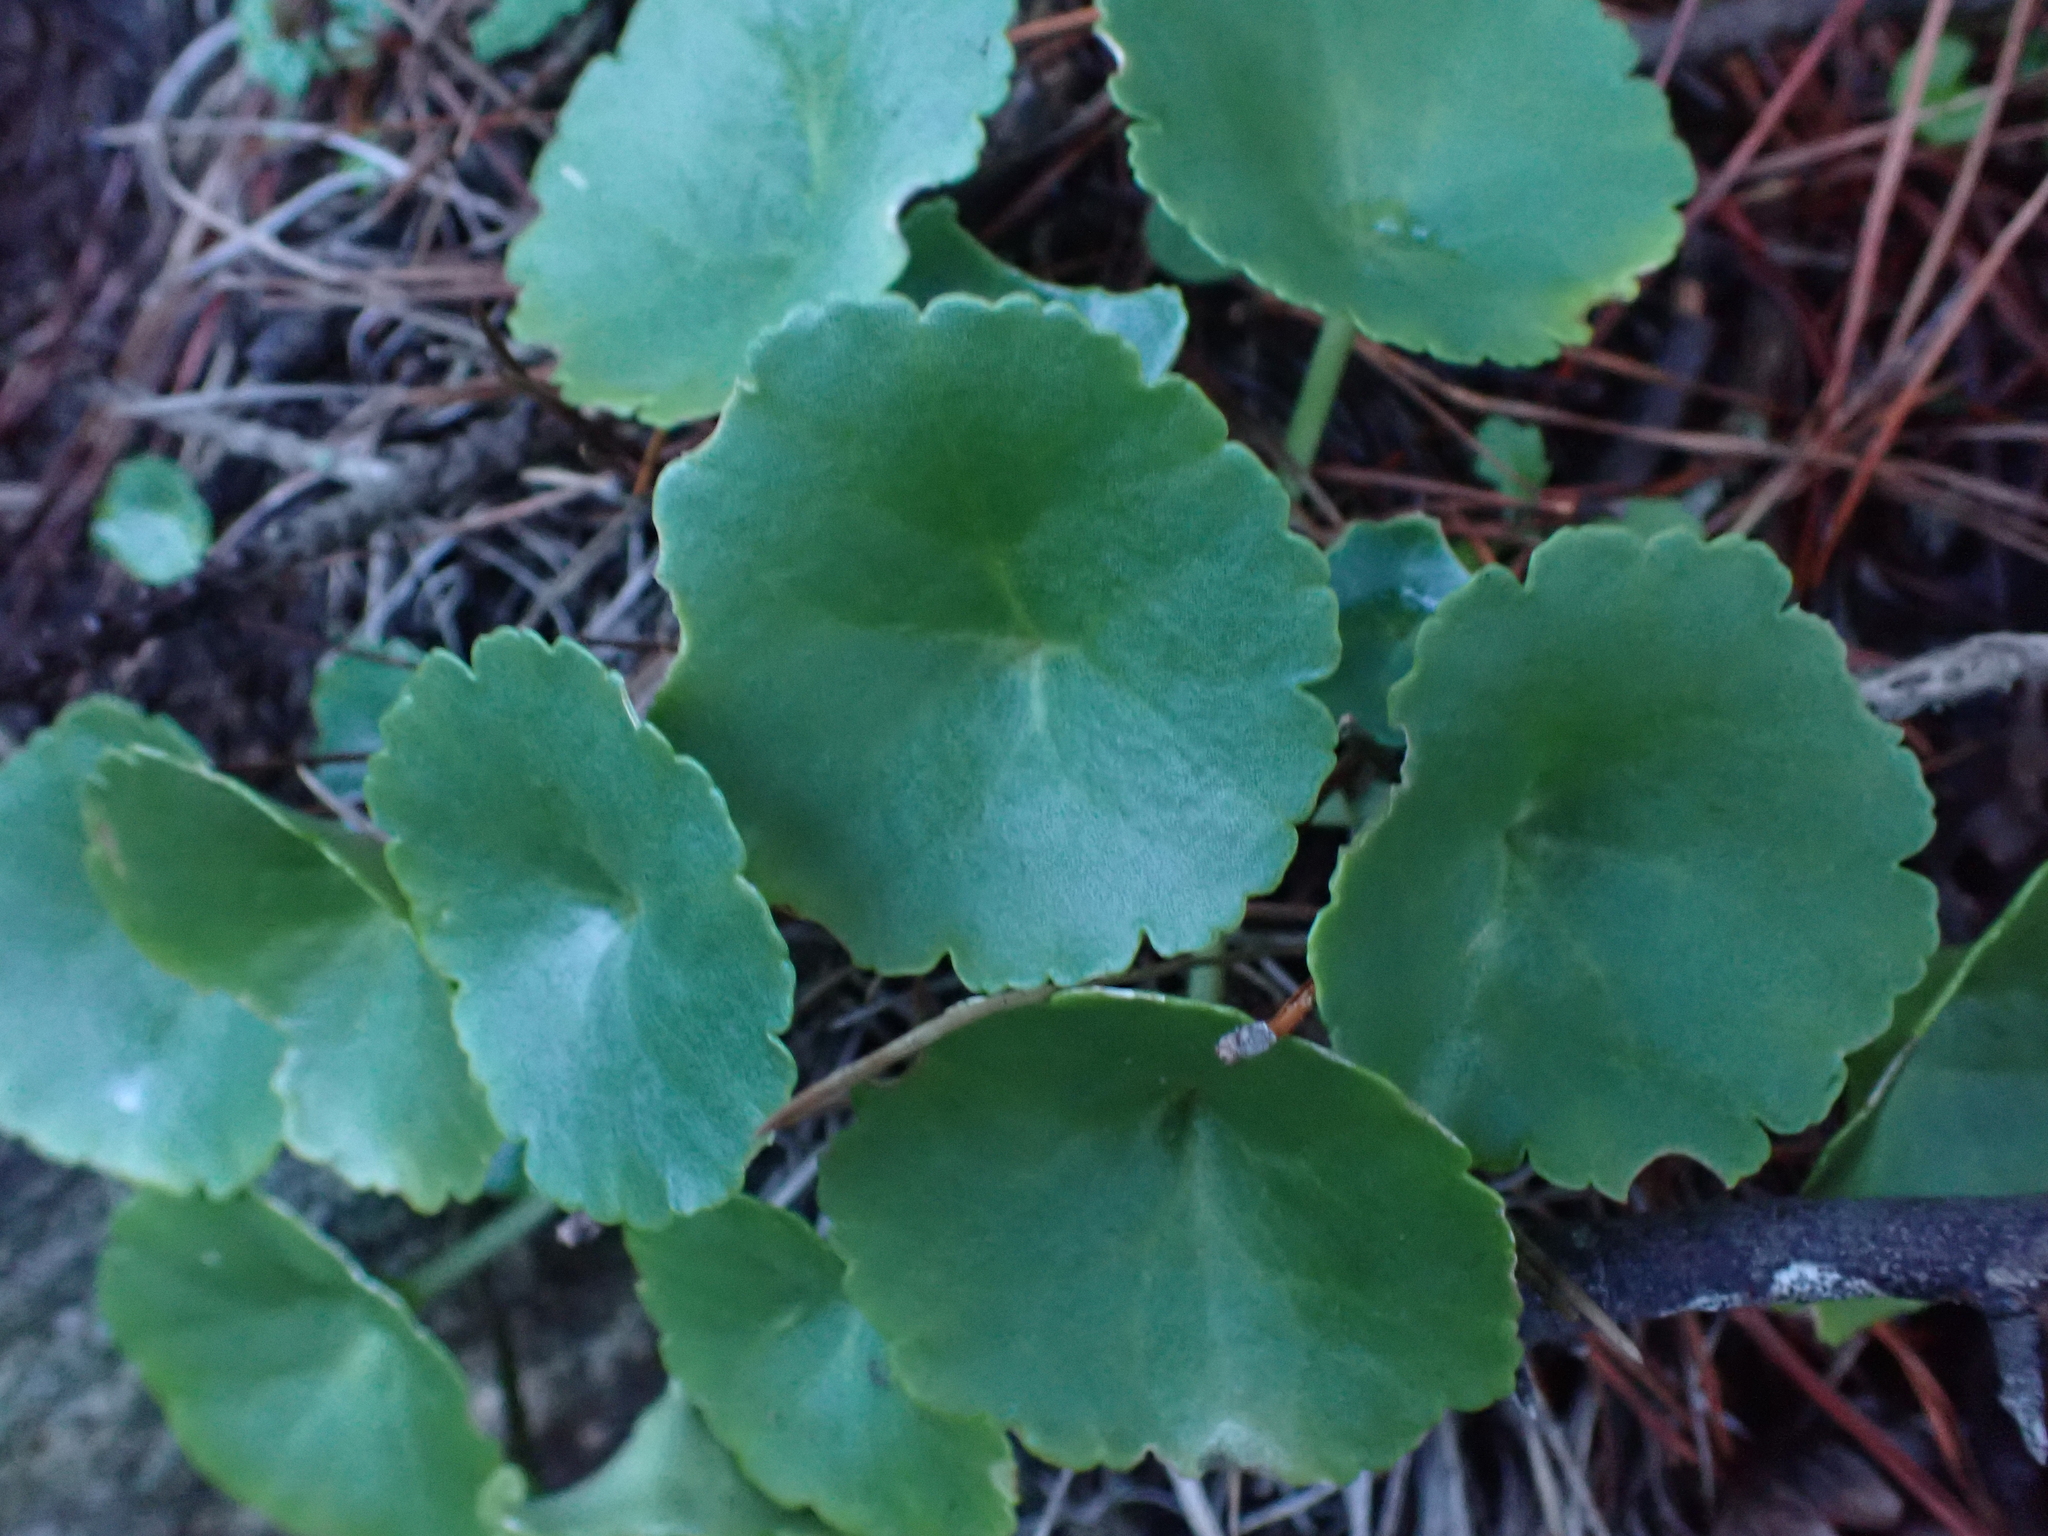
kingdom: Plantae
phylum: Tracheophyta
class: Magnoliopsida
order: Saxifragales
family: Crassulaceae
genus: Umbilicus
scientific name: Umbilicus rupestris
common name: Navelwort
